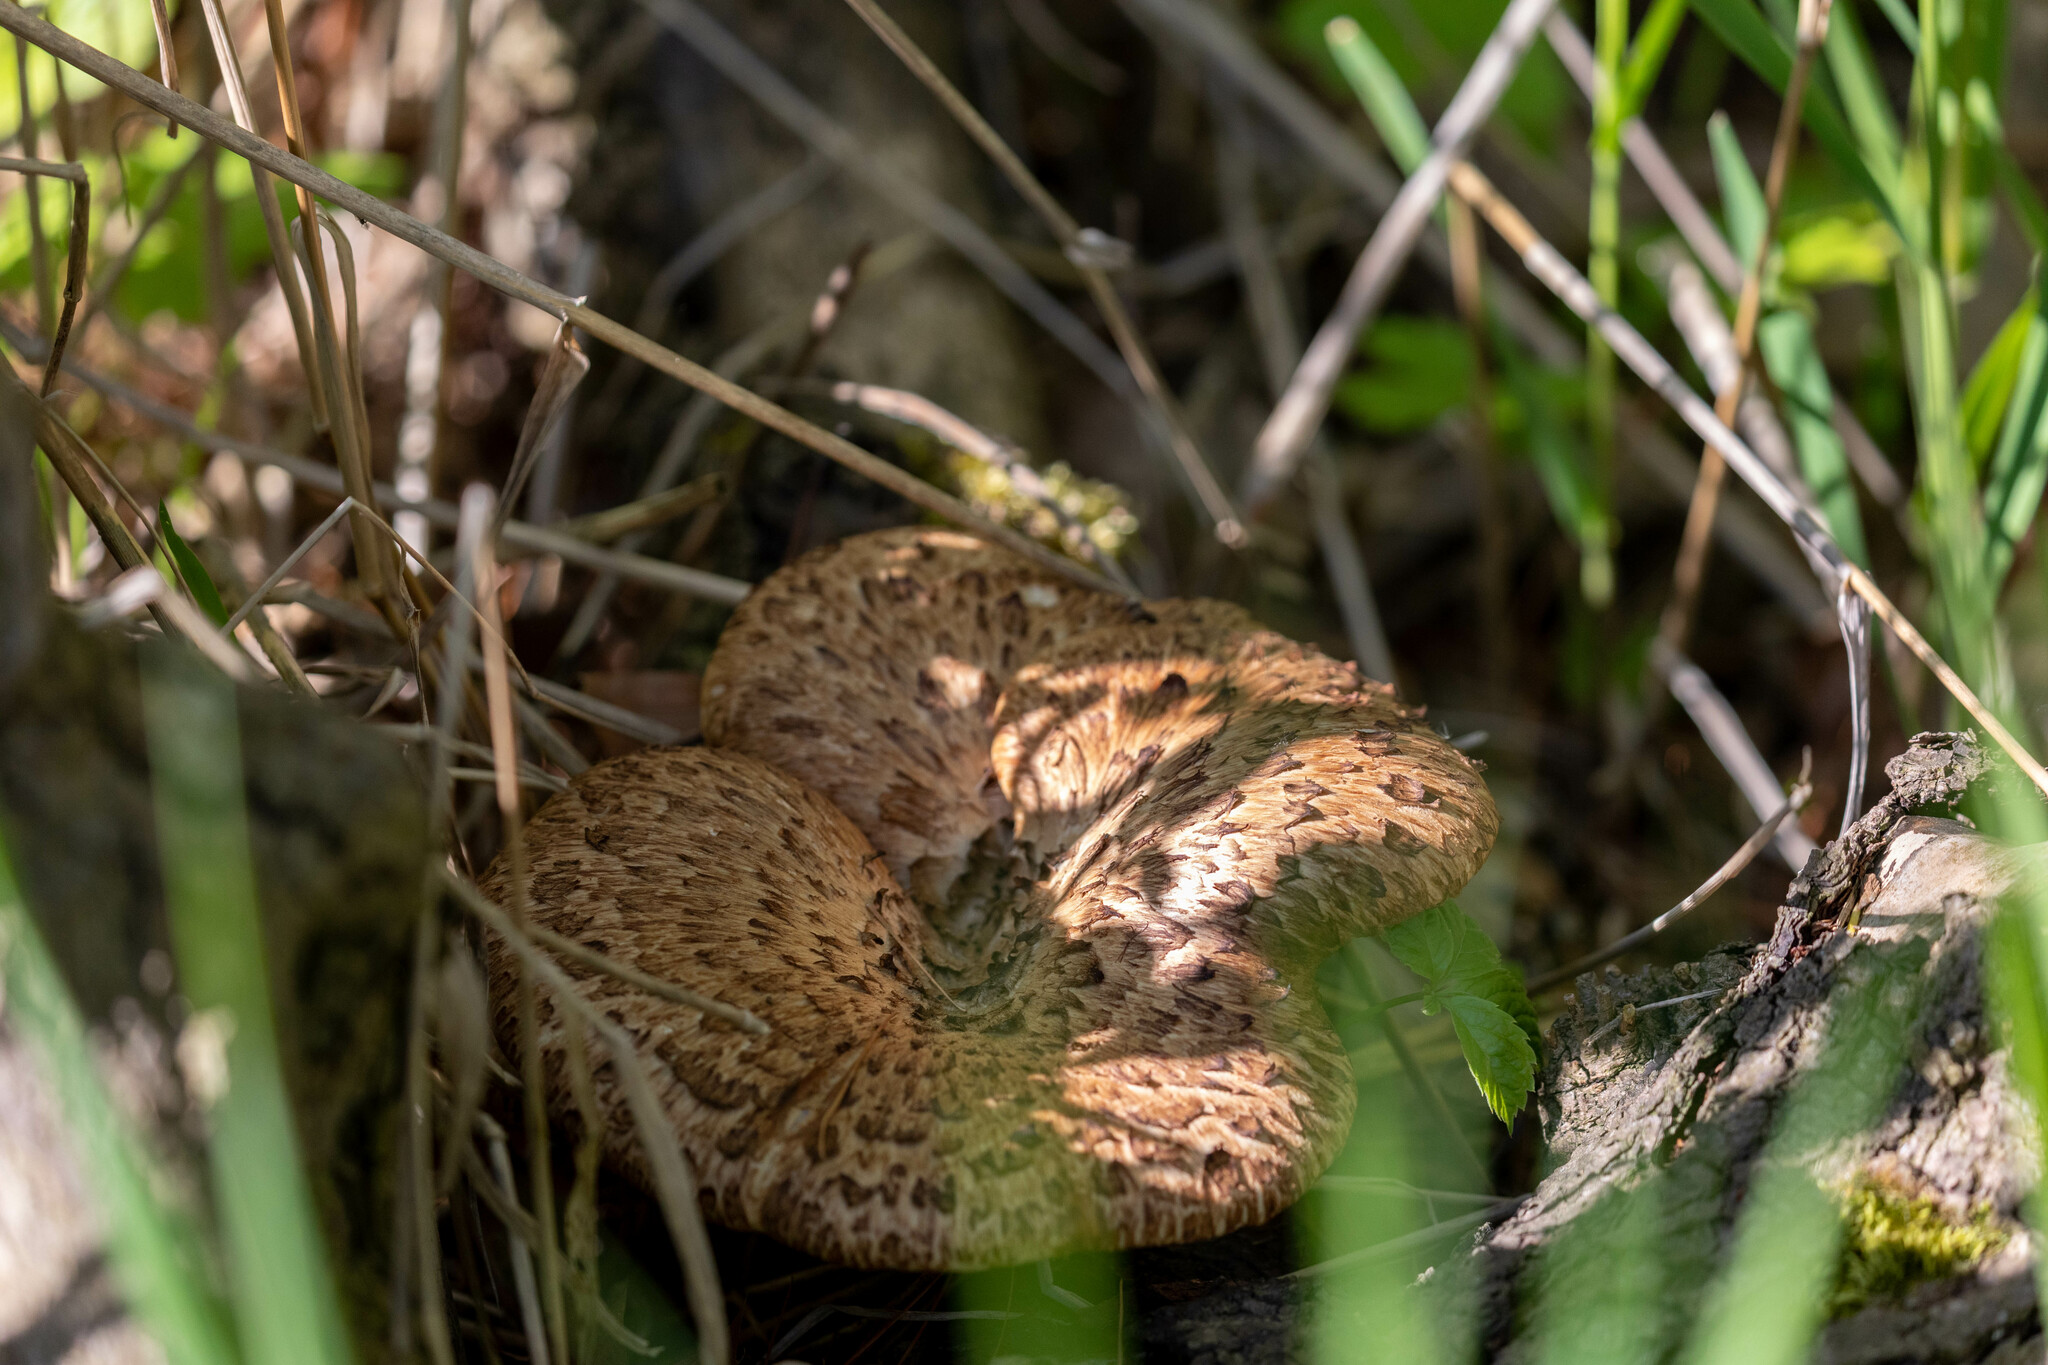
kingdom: Fungi
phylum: Basidiomycota
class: Agaricomycetes
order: Polyporales
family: Polyporaceae
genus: Cerioporus
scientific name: Cerioporus squamosus
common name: Dryad's saddle
